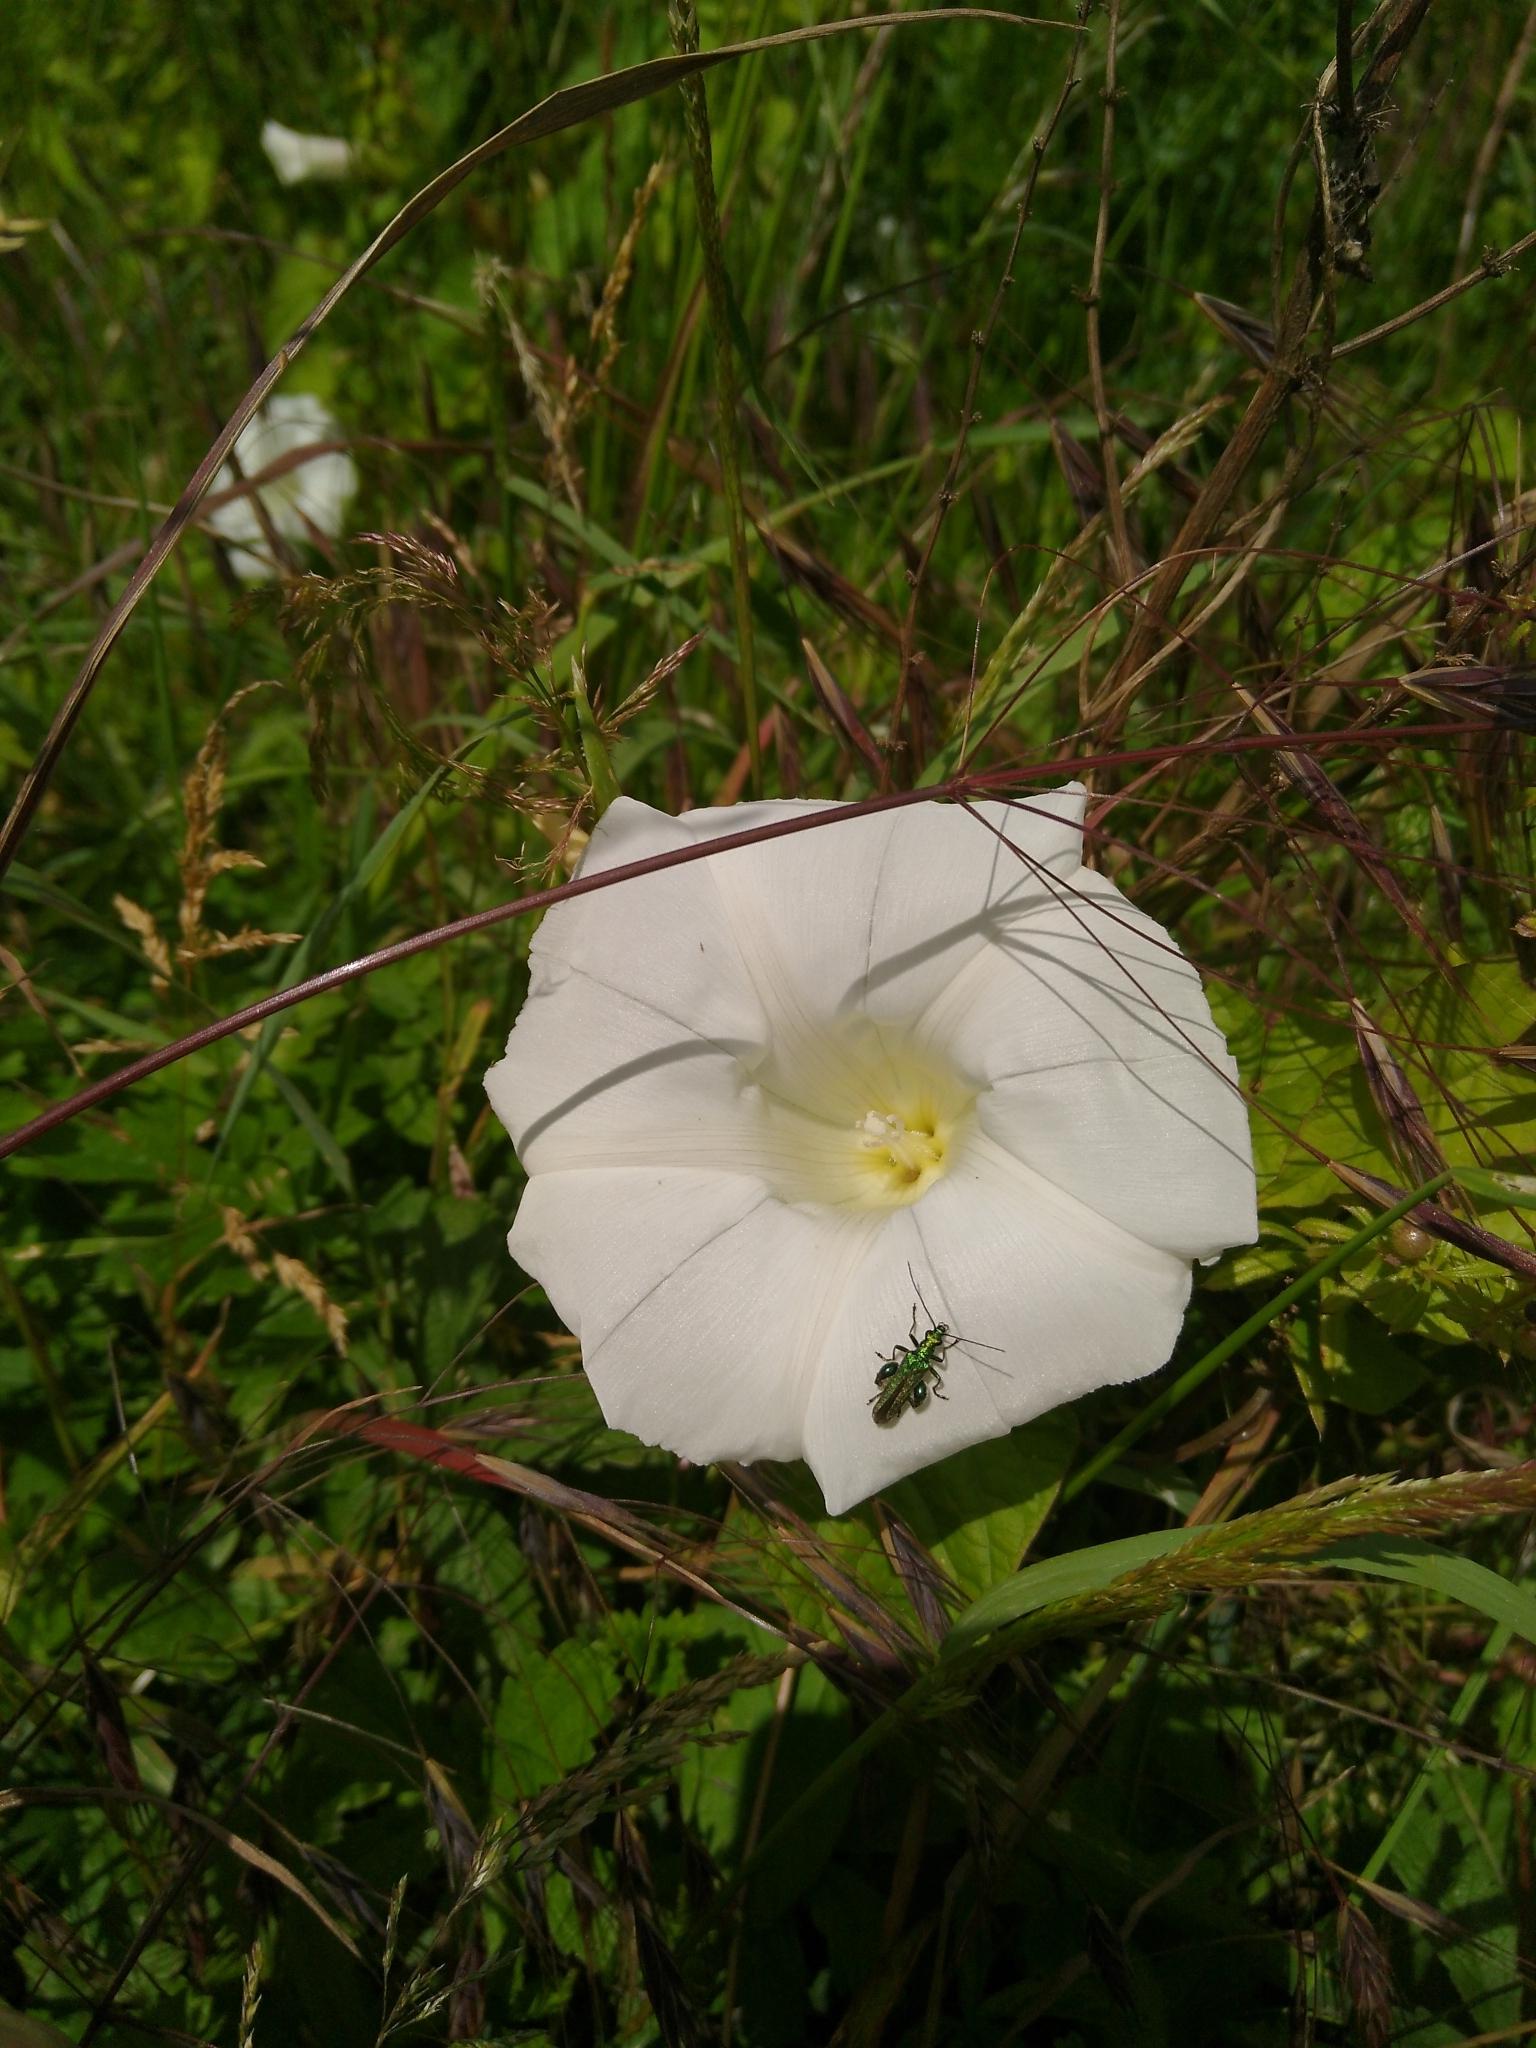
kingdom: Animalia
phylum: Arthropoda
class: Insecta
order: Coleoptera
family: Oedemeridae
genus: Oedemera
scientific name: Oedemera nobilis
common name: Swollen-thighed beetle
